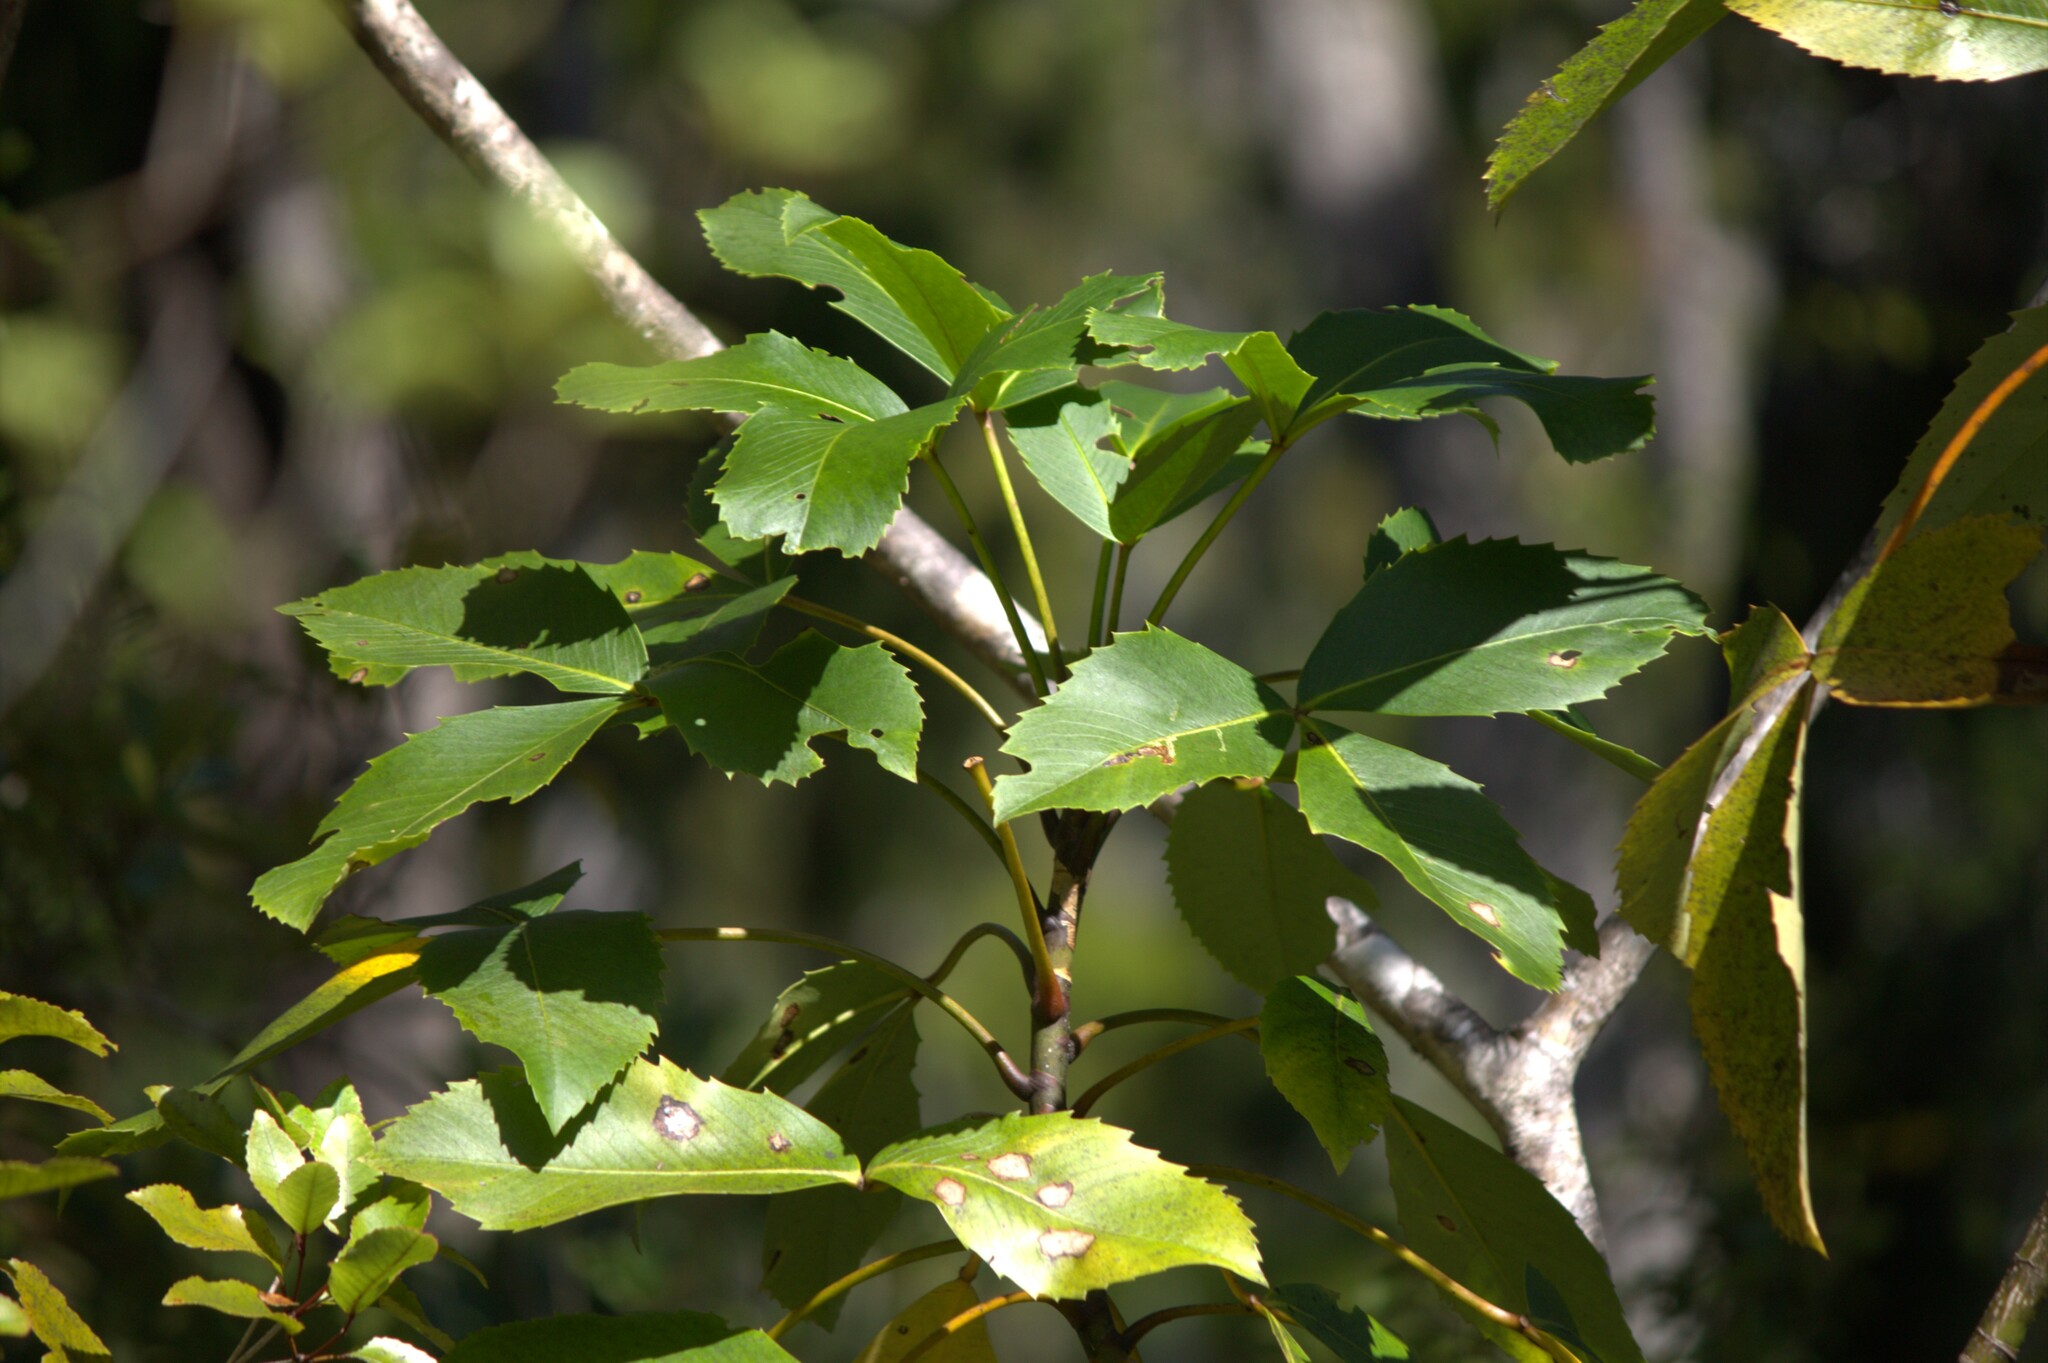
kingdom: Plantae
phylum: Tracheophyta
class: Magnoliopsida
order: Apiales
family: Araliaceae
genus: Neopanax
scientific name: Neopanax colensoi
